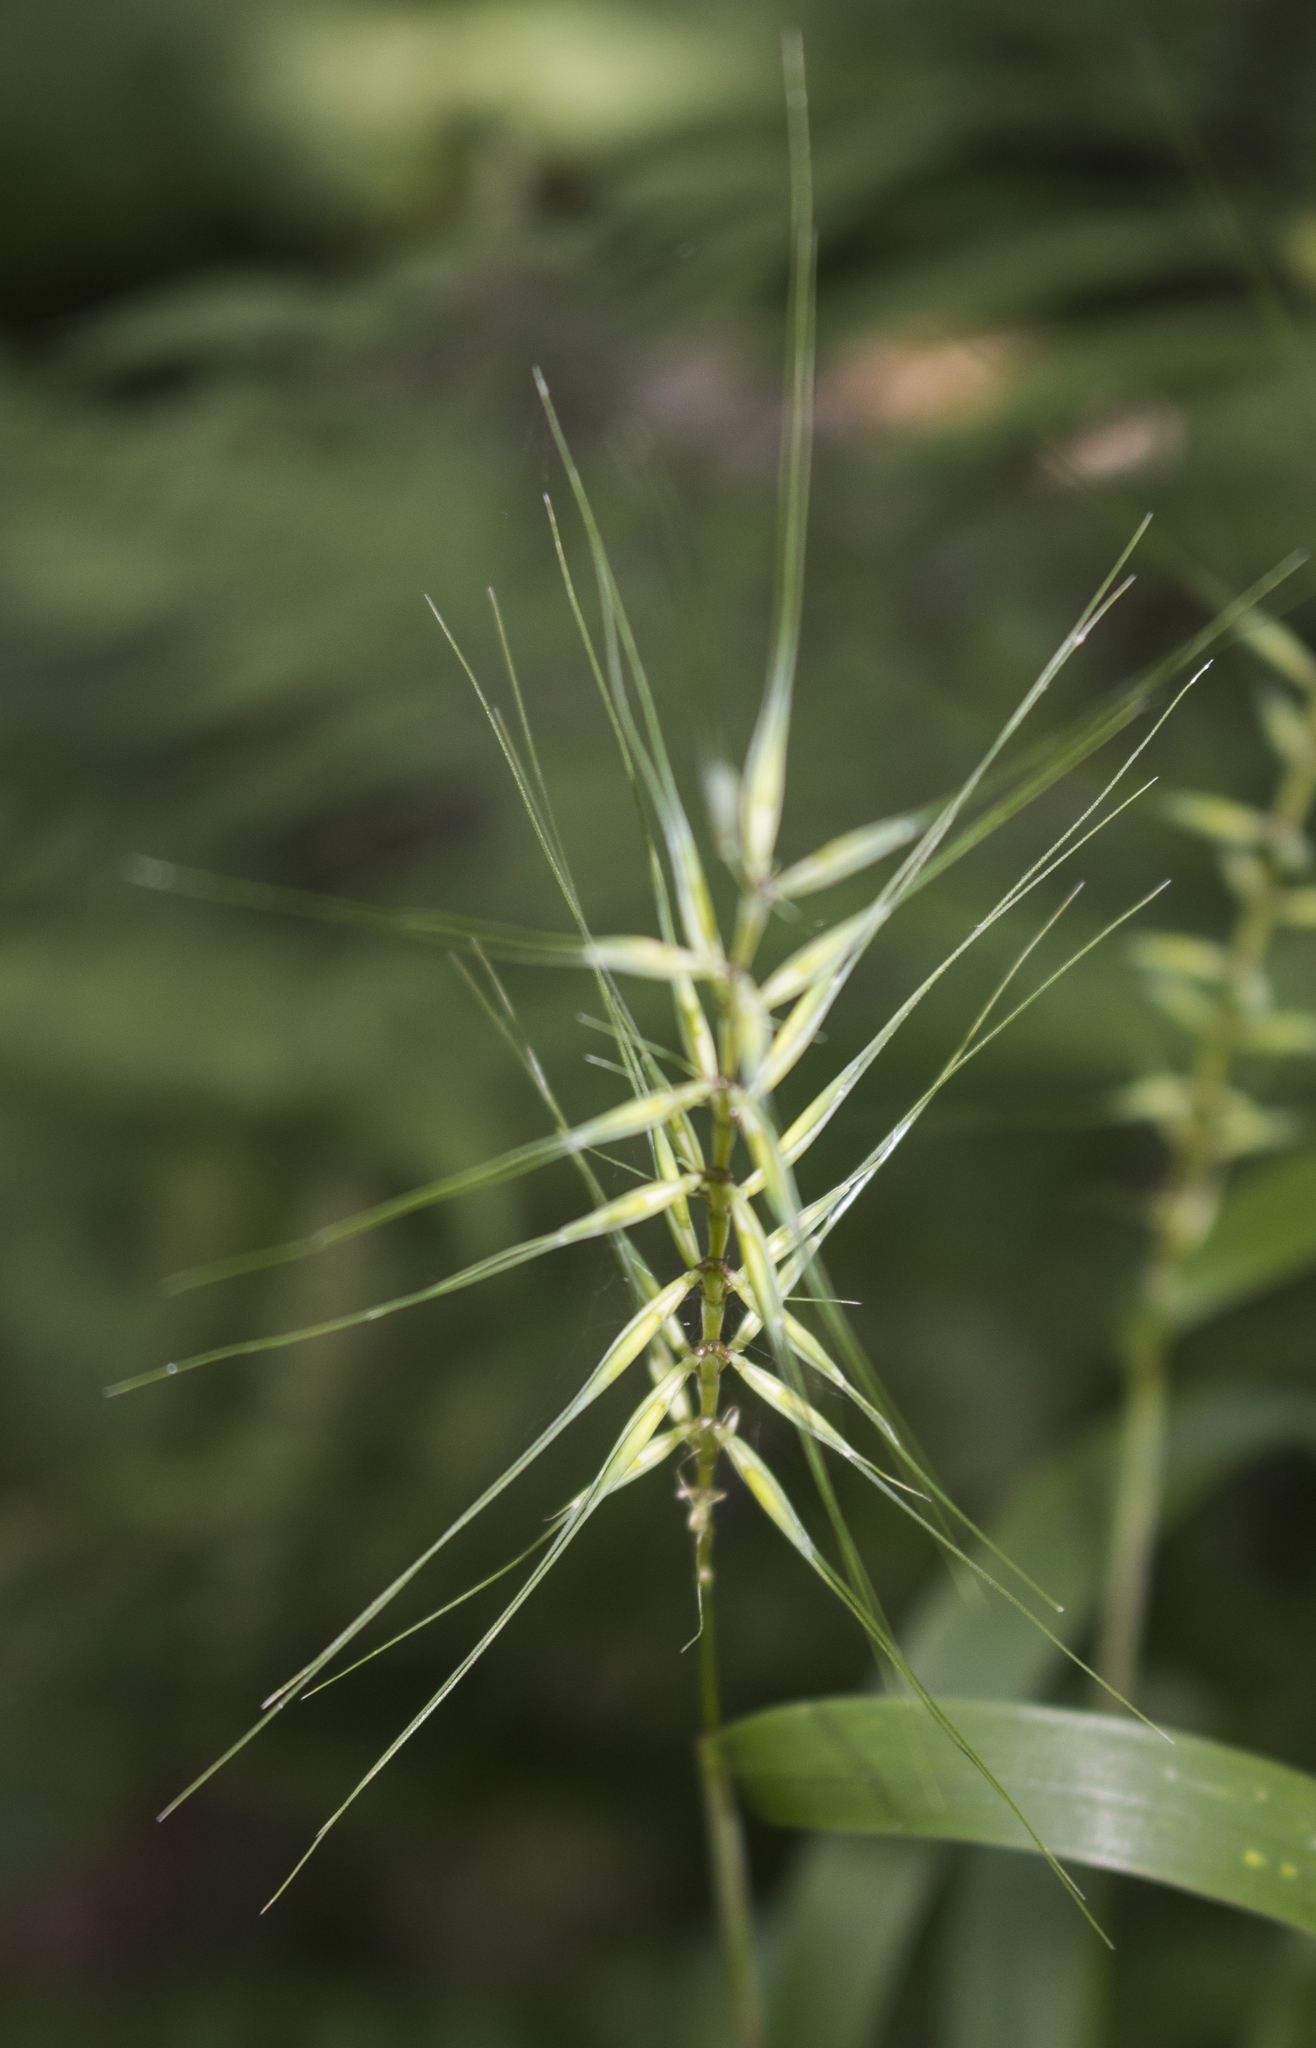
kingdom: Plantae
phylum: Tracheophyta
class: Liliopsida
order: Poales
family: Poaceae
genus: Elymus
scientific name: Elymus hystrix
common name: Bottlebrush grass
